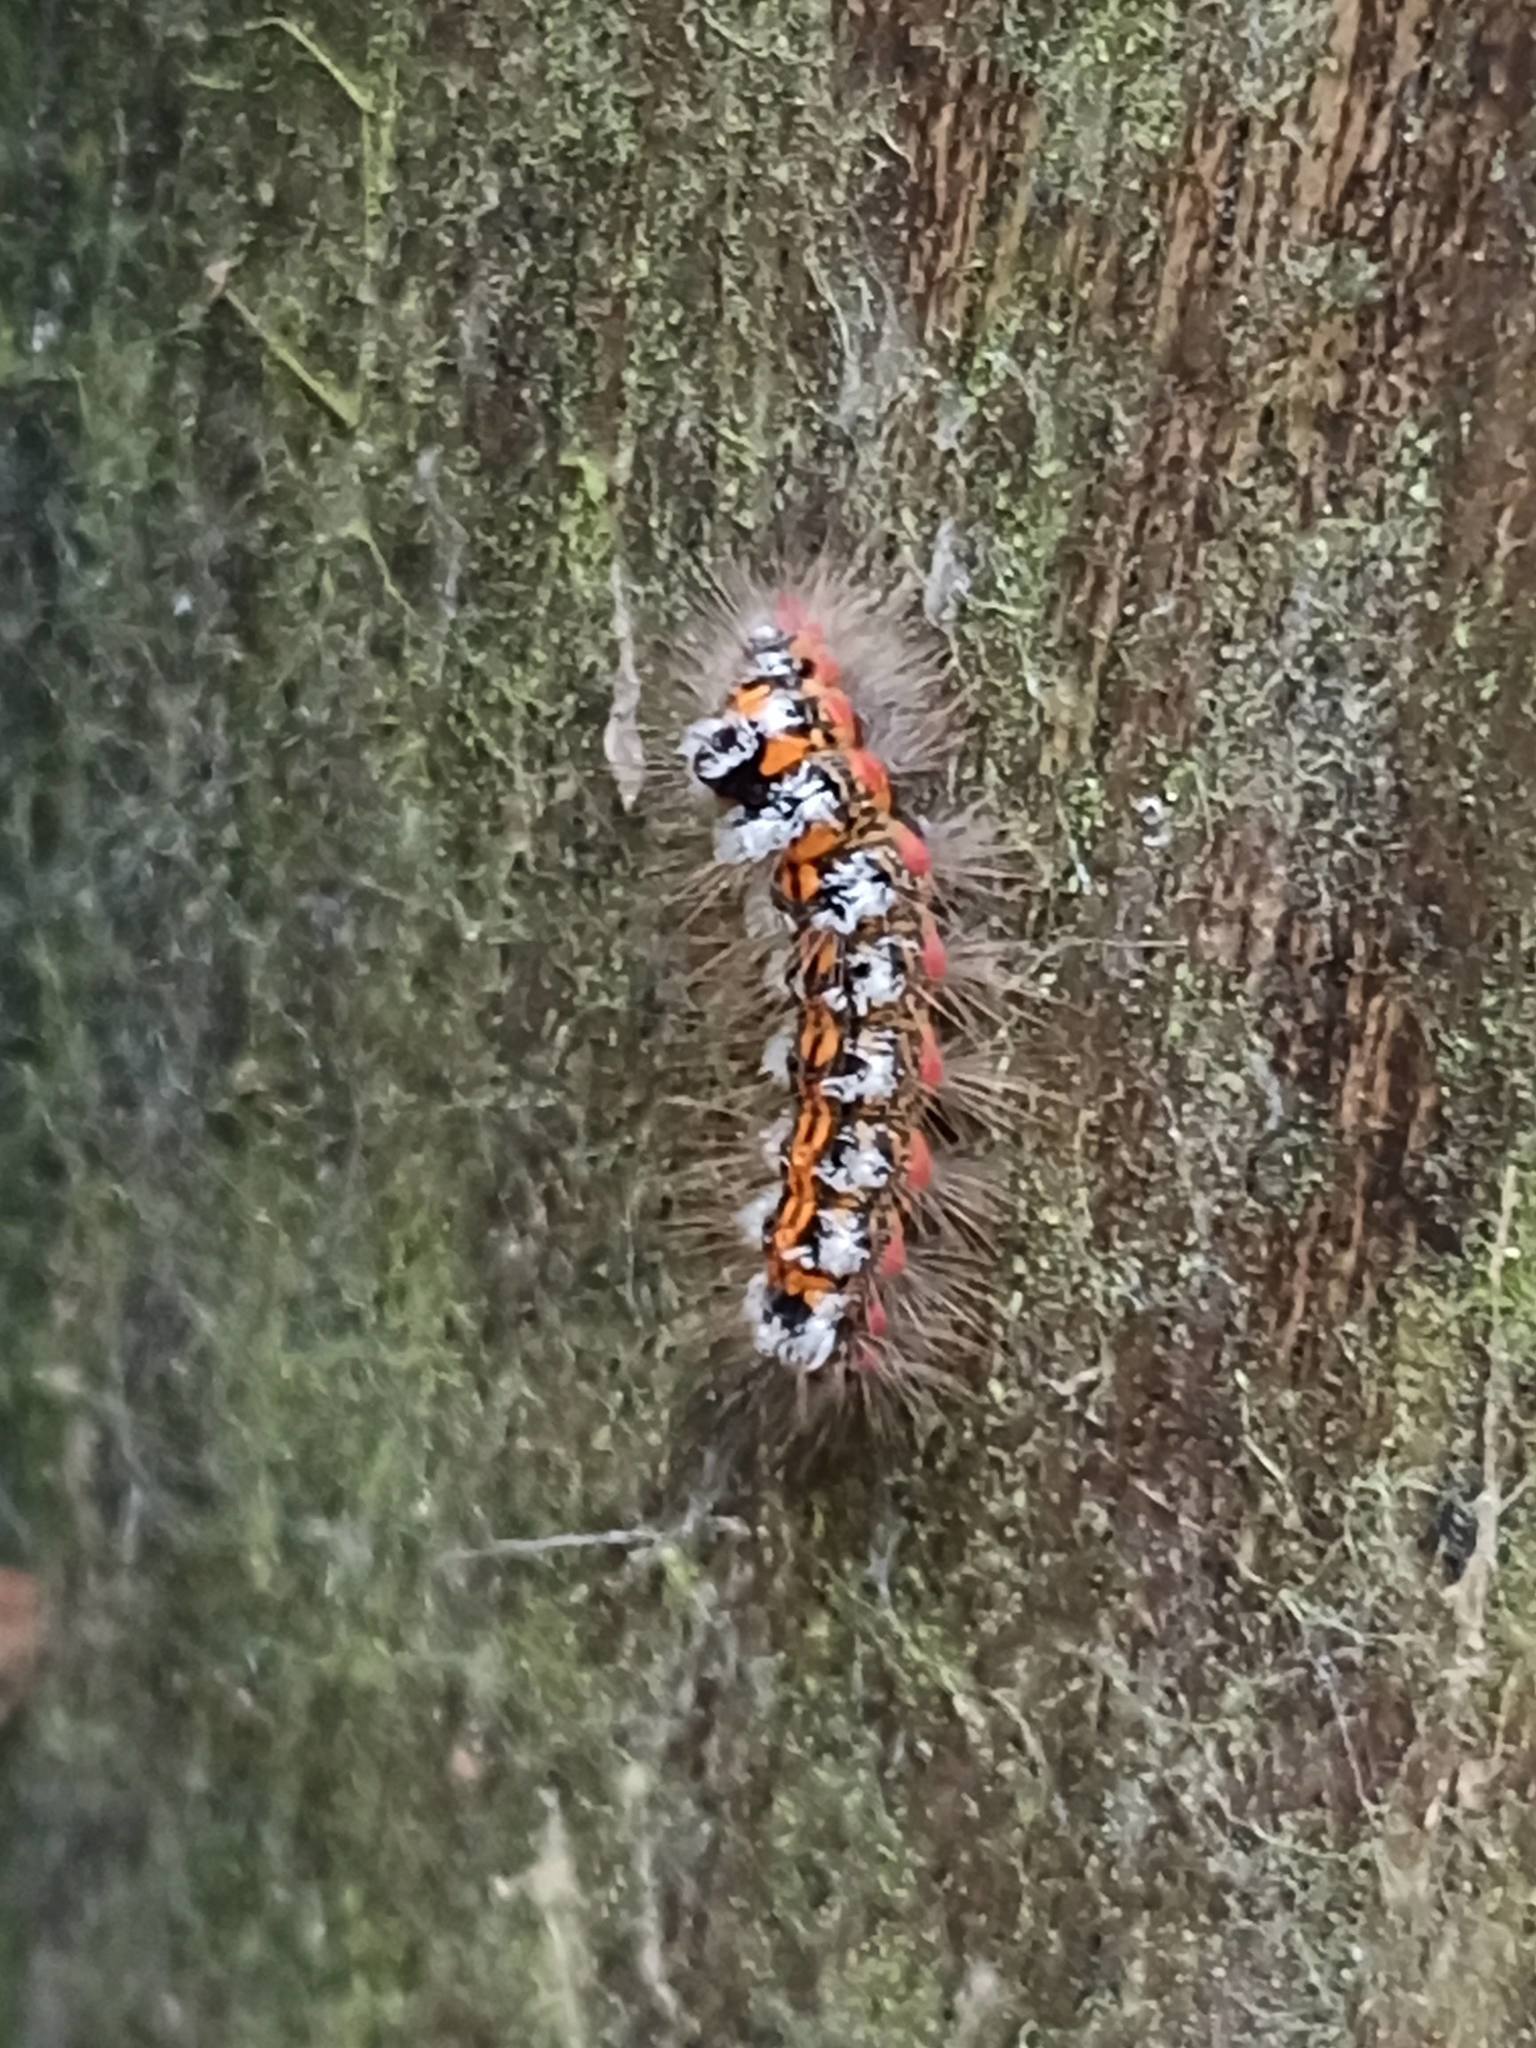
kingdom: Animalia
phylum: Arthropoda
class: Insecta
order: Lepidoptera
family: Erebidae
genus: Sphrageidus
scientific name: Sphrageidus similis
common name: Yellow-tail
